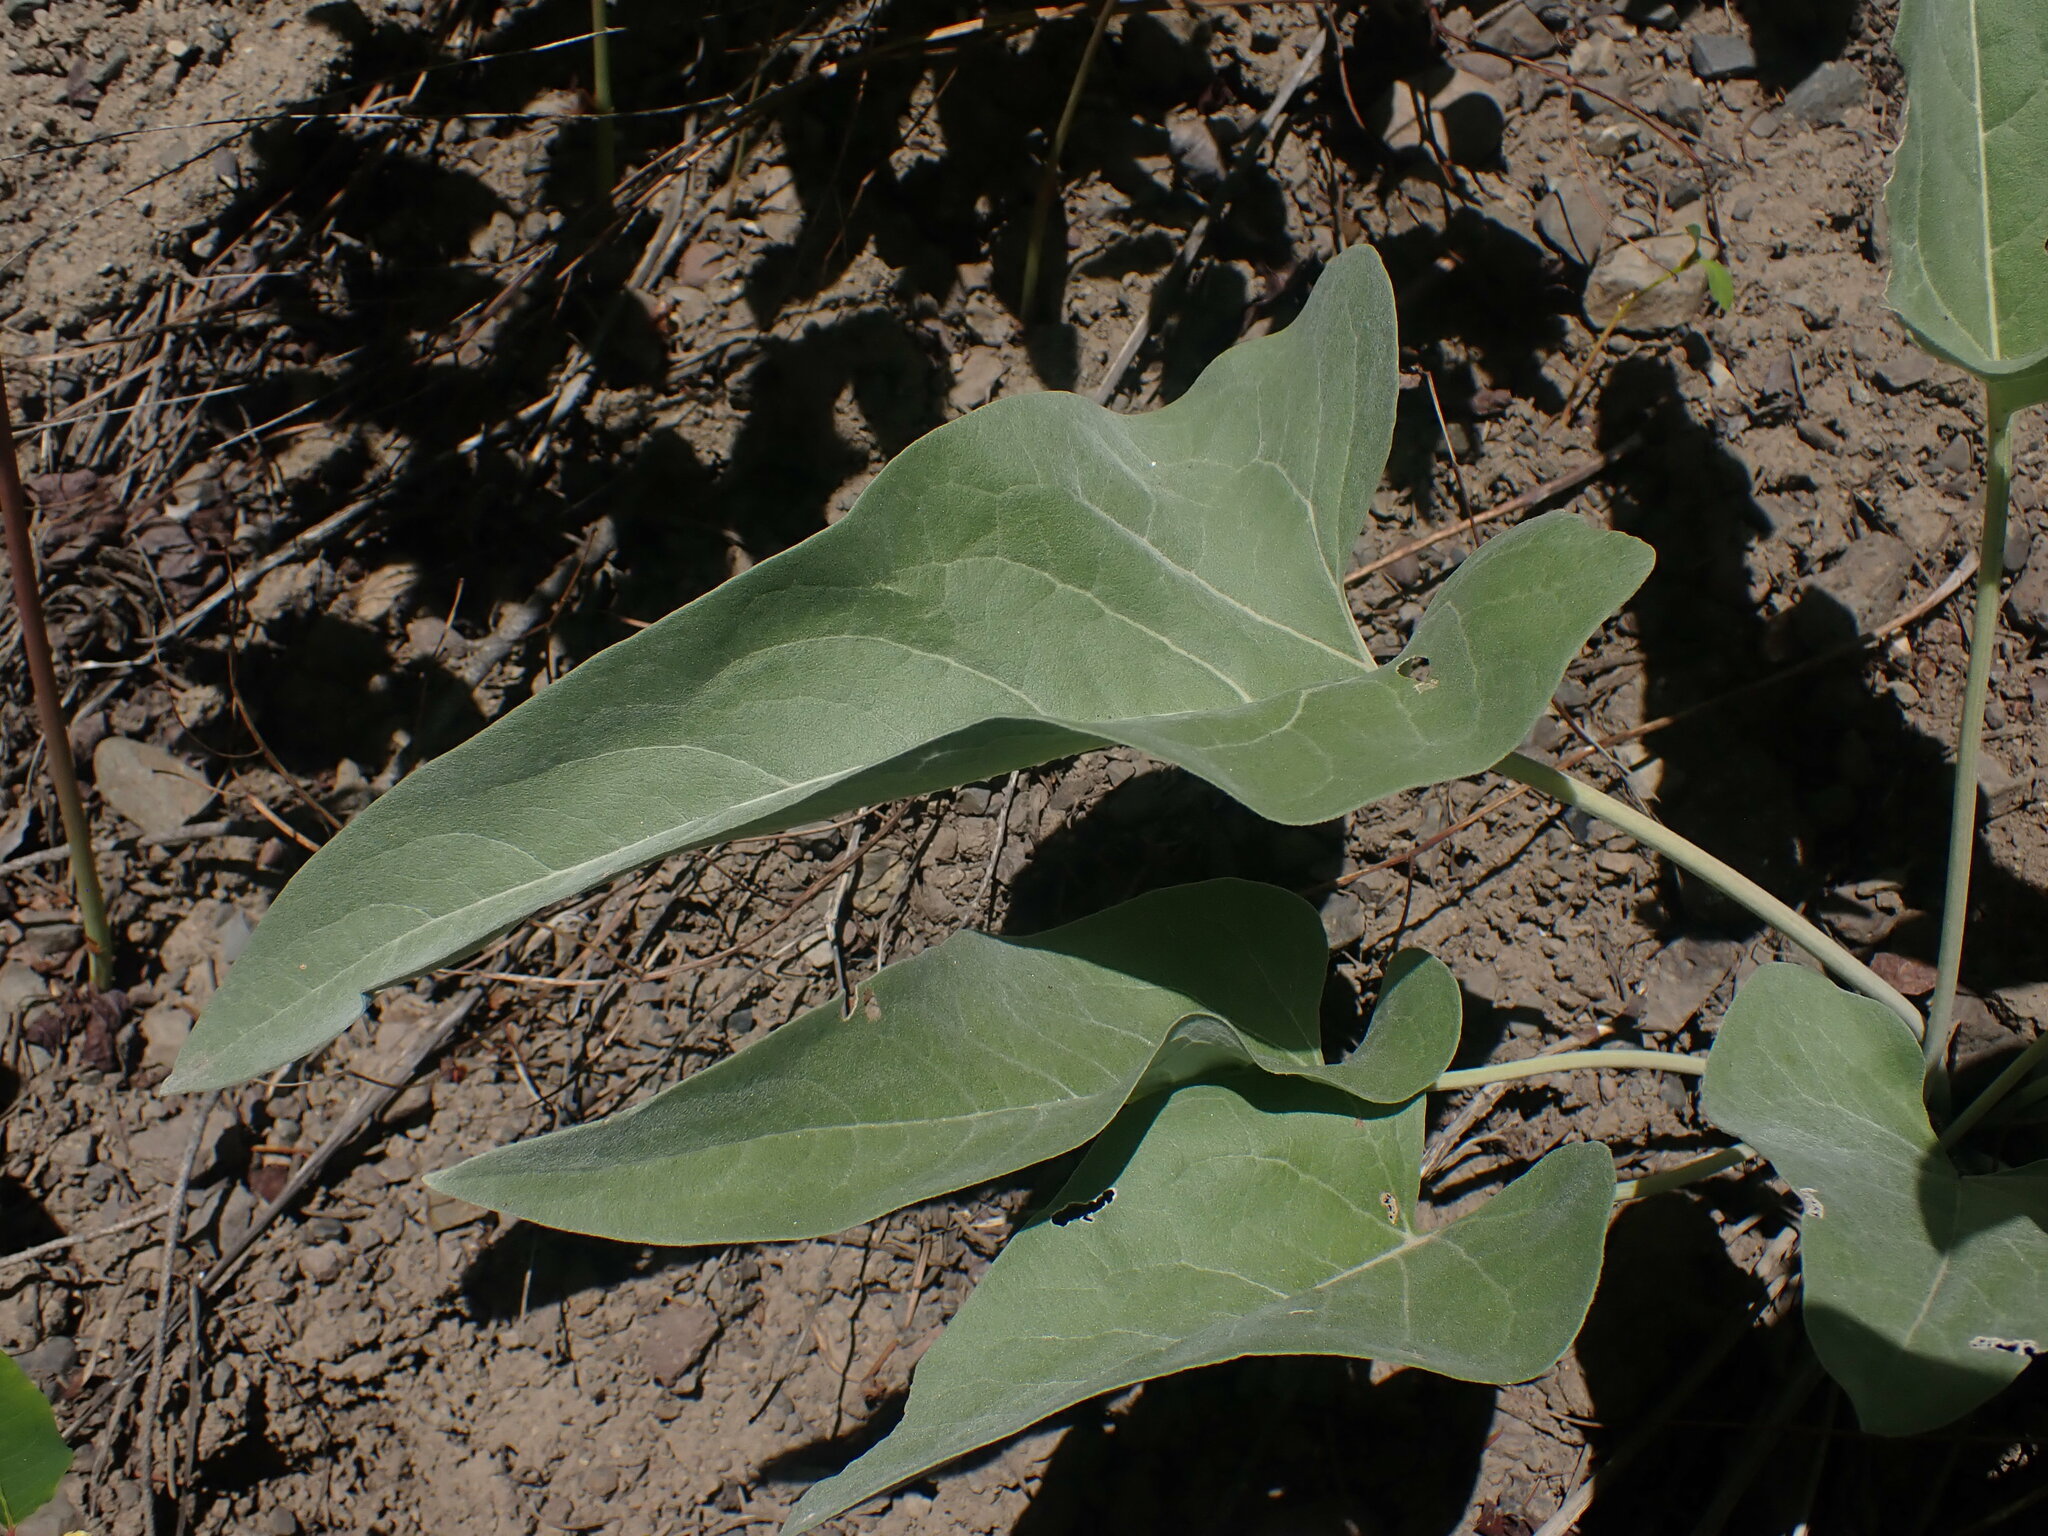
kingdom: Plantae
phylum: Tracheophyta
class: Magnoliopsida
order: Asterales
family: Asteraceae
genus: Wyethia
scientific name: Wyethia sagittata
